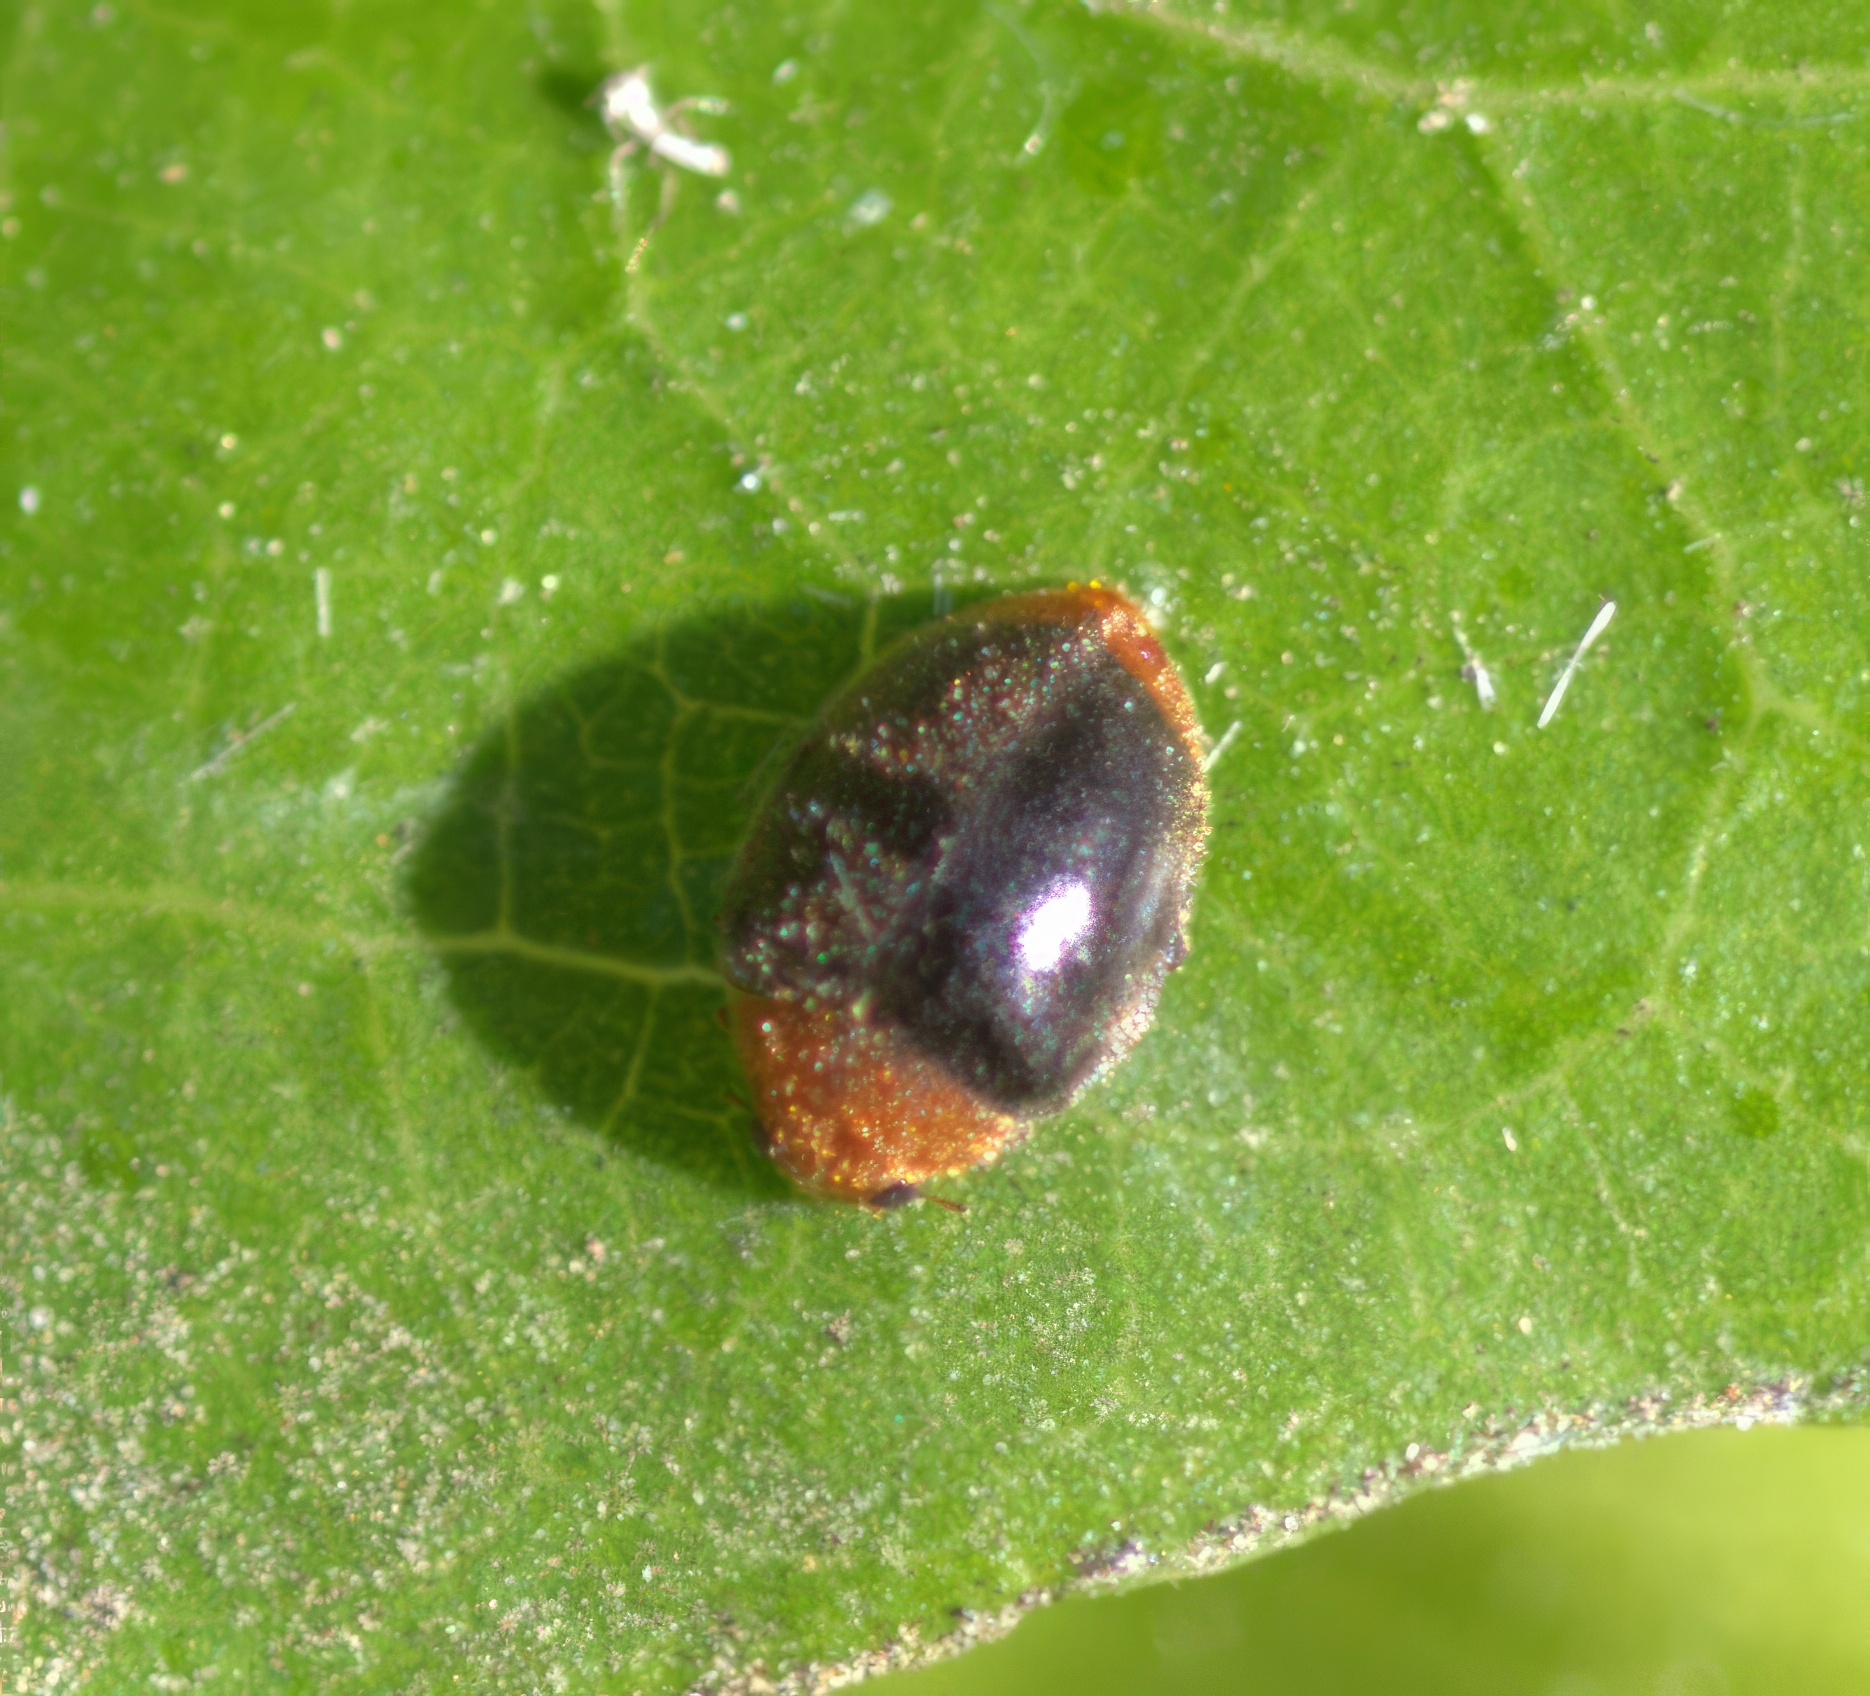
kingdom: Animalia
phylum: Arthropoda
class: Insecta
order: Coleoptera
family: Coccinellidae
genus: Cryptolaemus
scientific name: Cryptolaemus montrouzieri
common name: Mealybug destroyer
